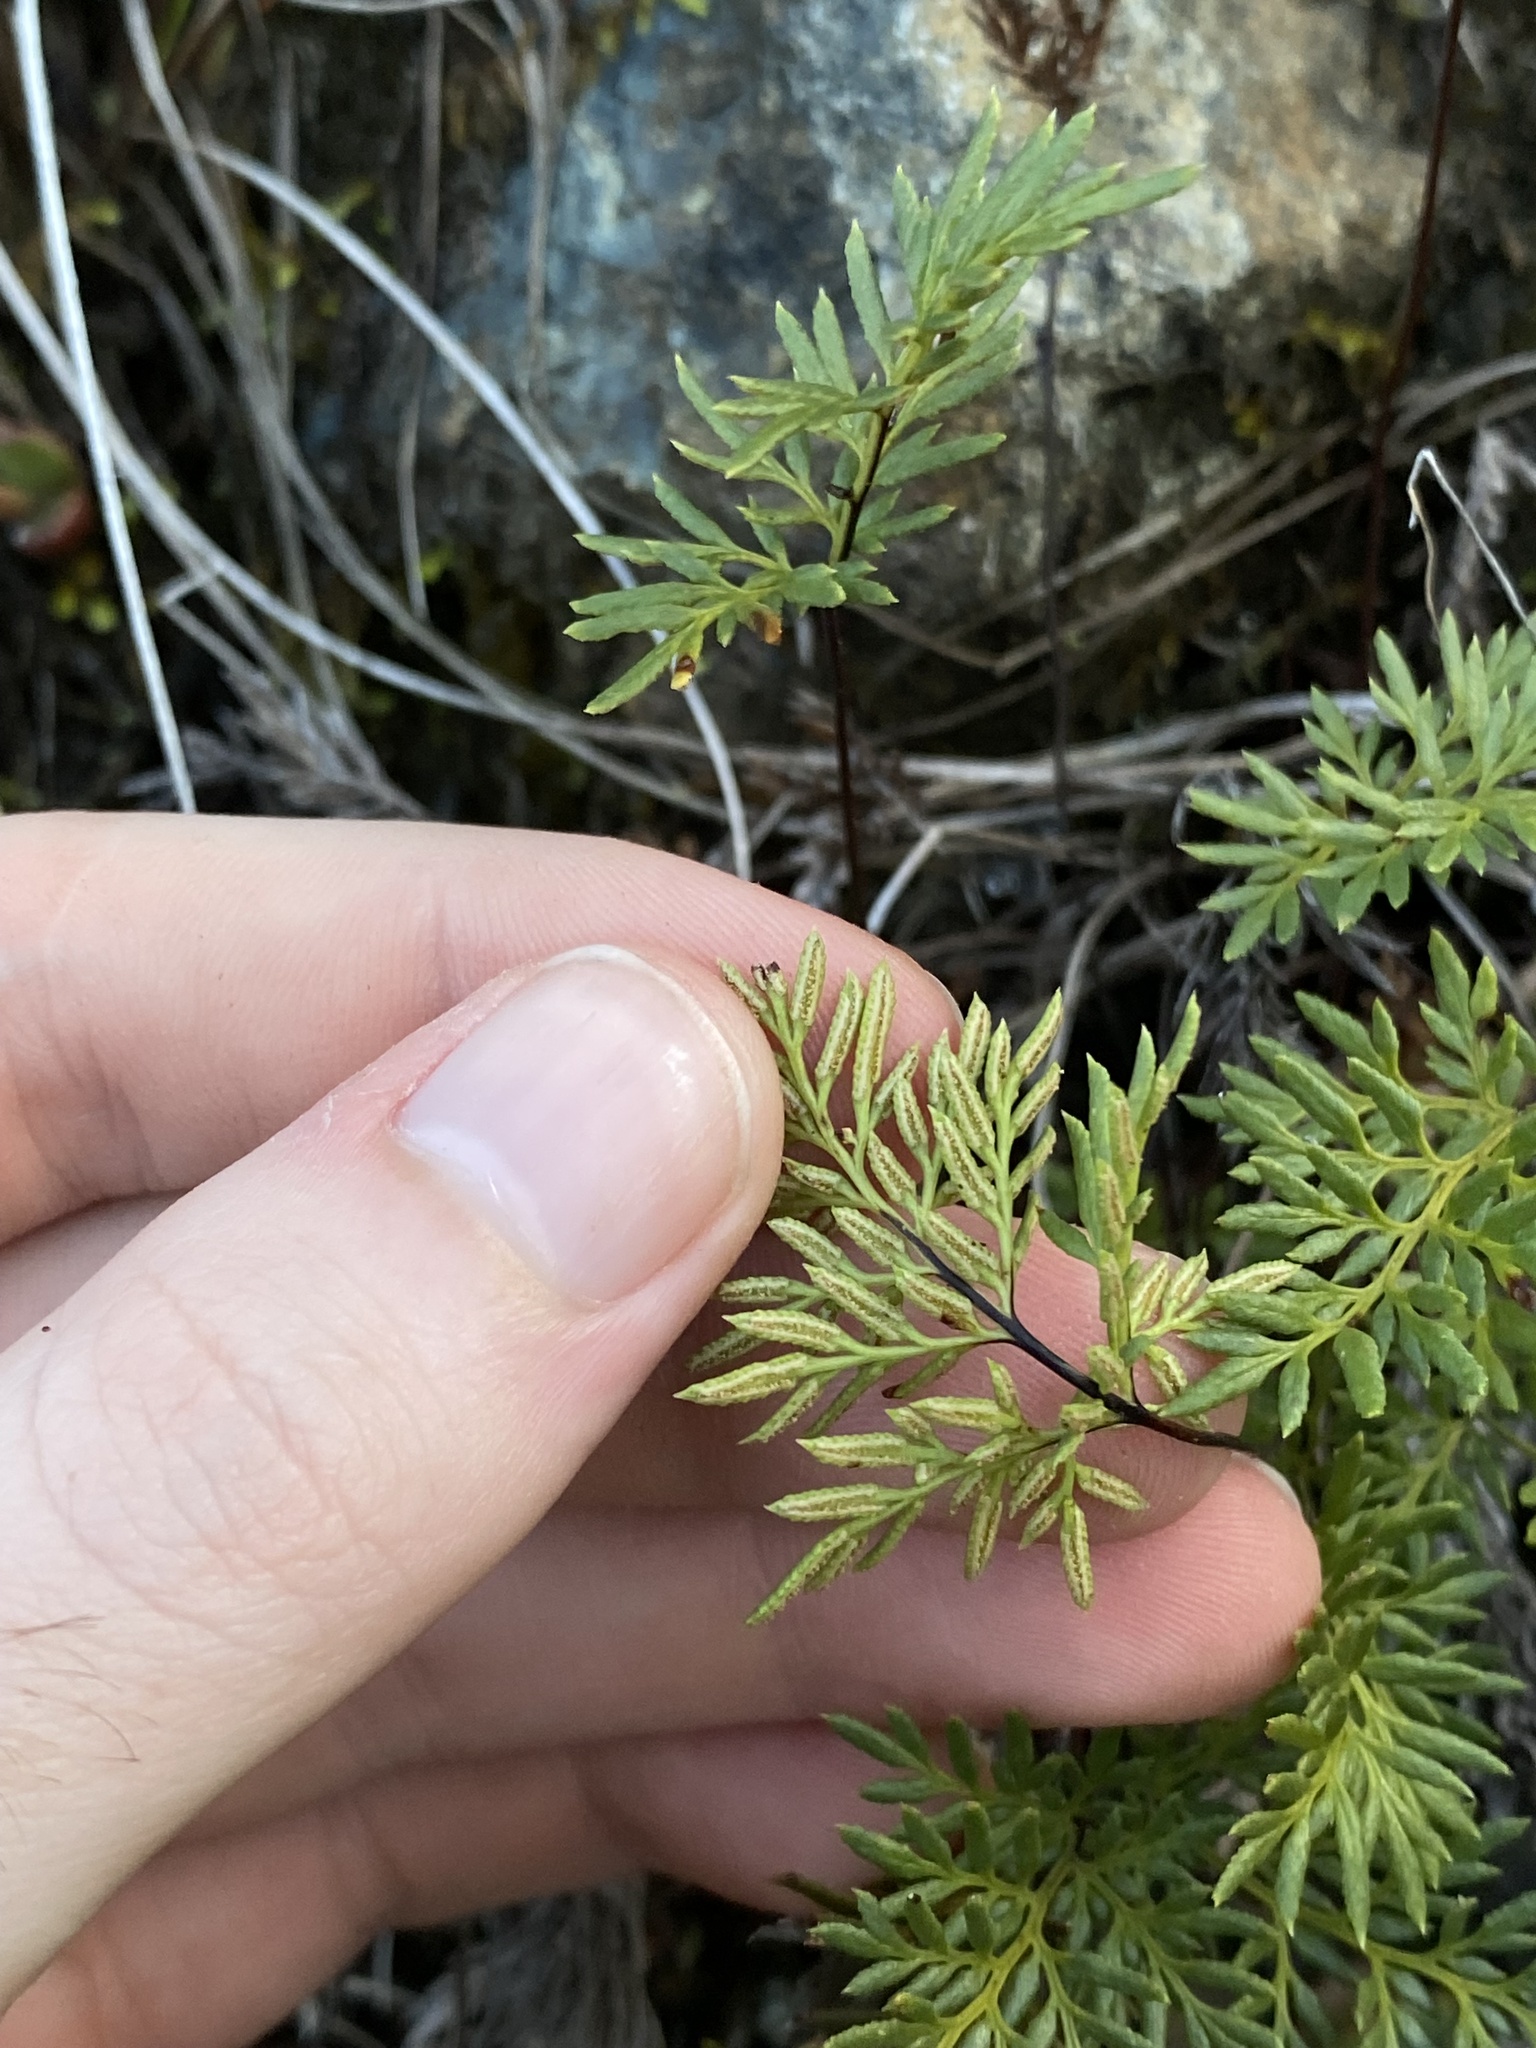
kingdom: Plantae
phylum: Tracheophyta
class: Polypodiopsida
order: Polypodiales
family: Pteridaceae
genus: Aspidotis
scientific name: Aspidotis densa
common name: Indian's dream
